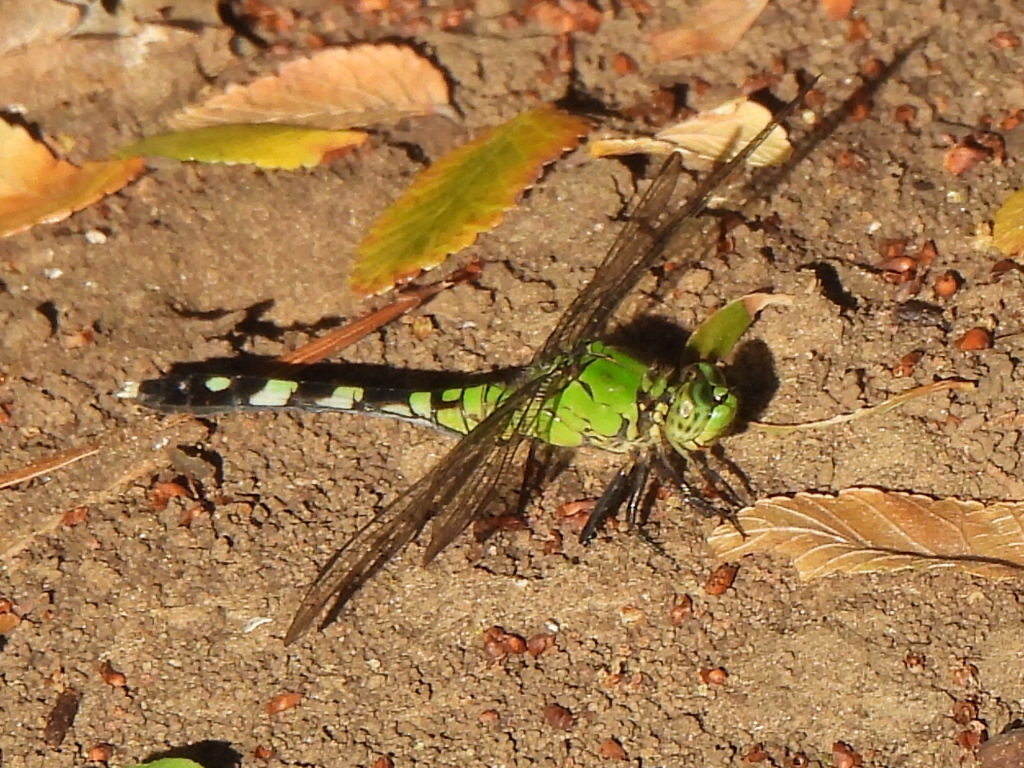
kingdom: Animalia
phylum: Arthropoda
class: Insecta
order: Odonata
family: Libellulidae
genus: Erythemis
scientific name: Erythemis simplicicollis
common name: Eastern pondhawk
